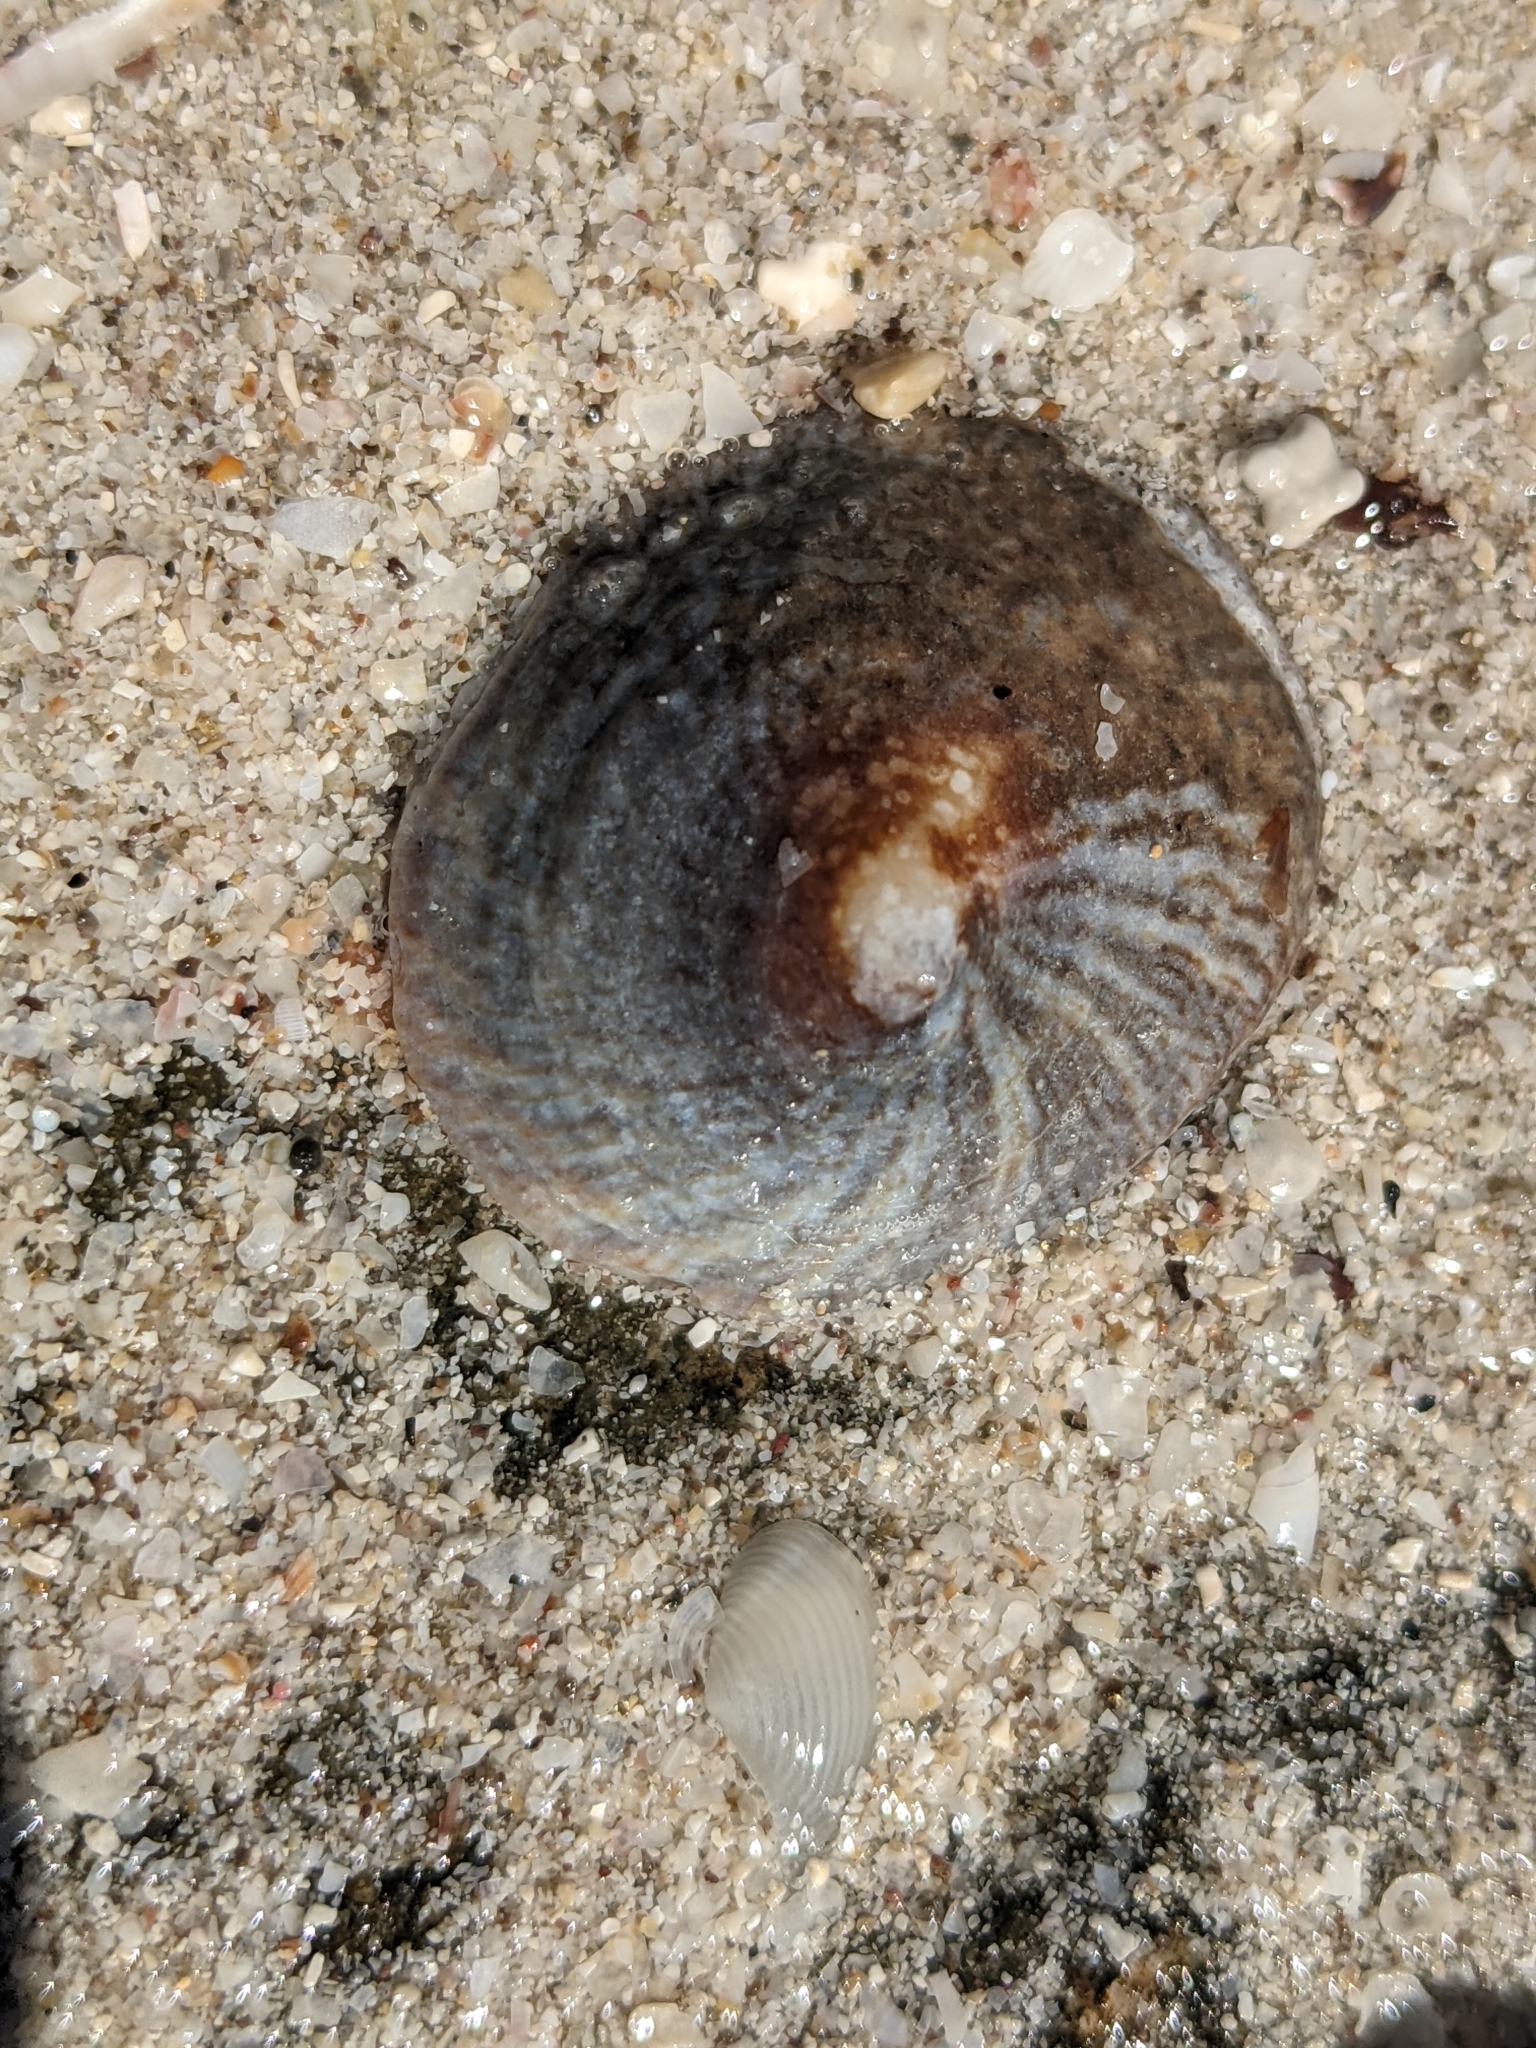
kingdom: Animalia
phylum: Mollusca
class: Gastropoda
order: Littorinimorpha
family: Calyptraeidae
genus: Crucibulum
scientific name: Crucibulum spinosum
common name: Spiny cup-and-saucer
